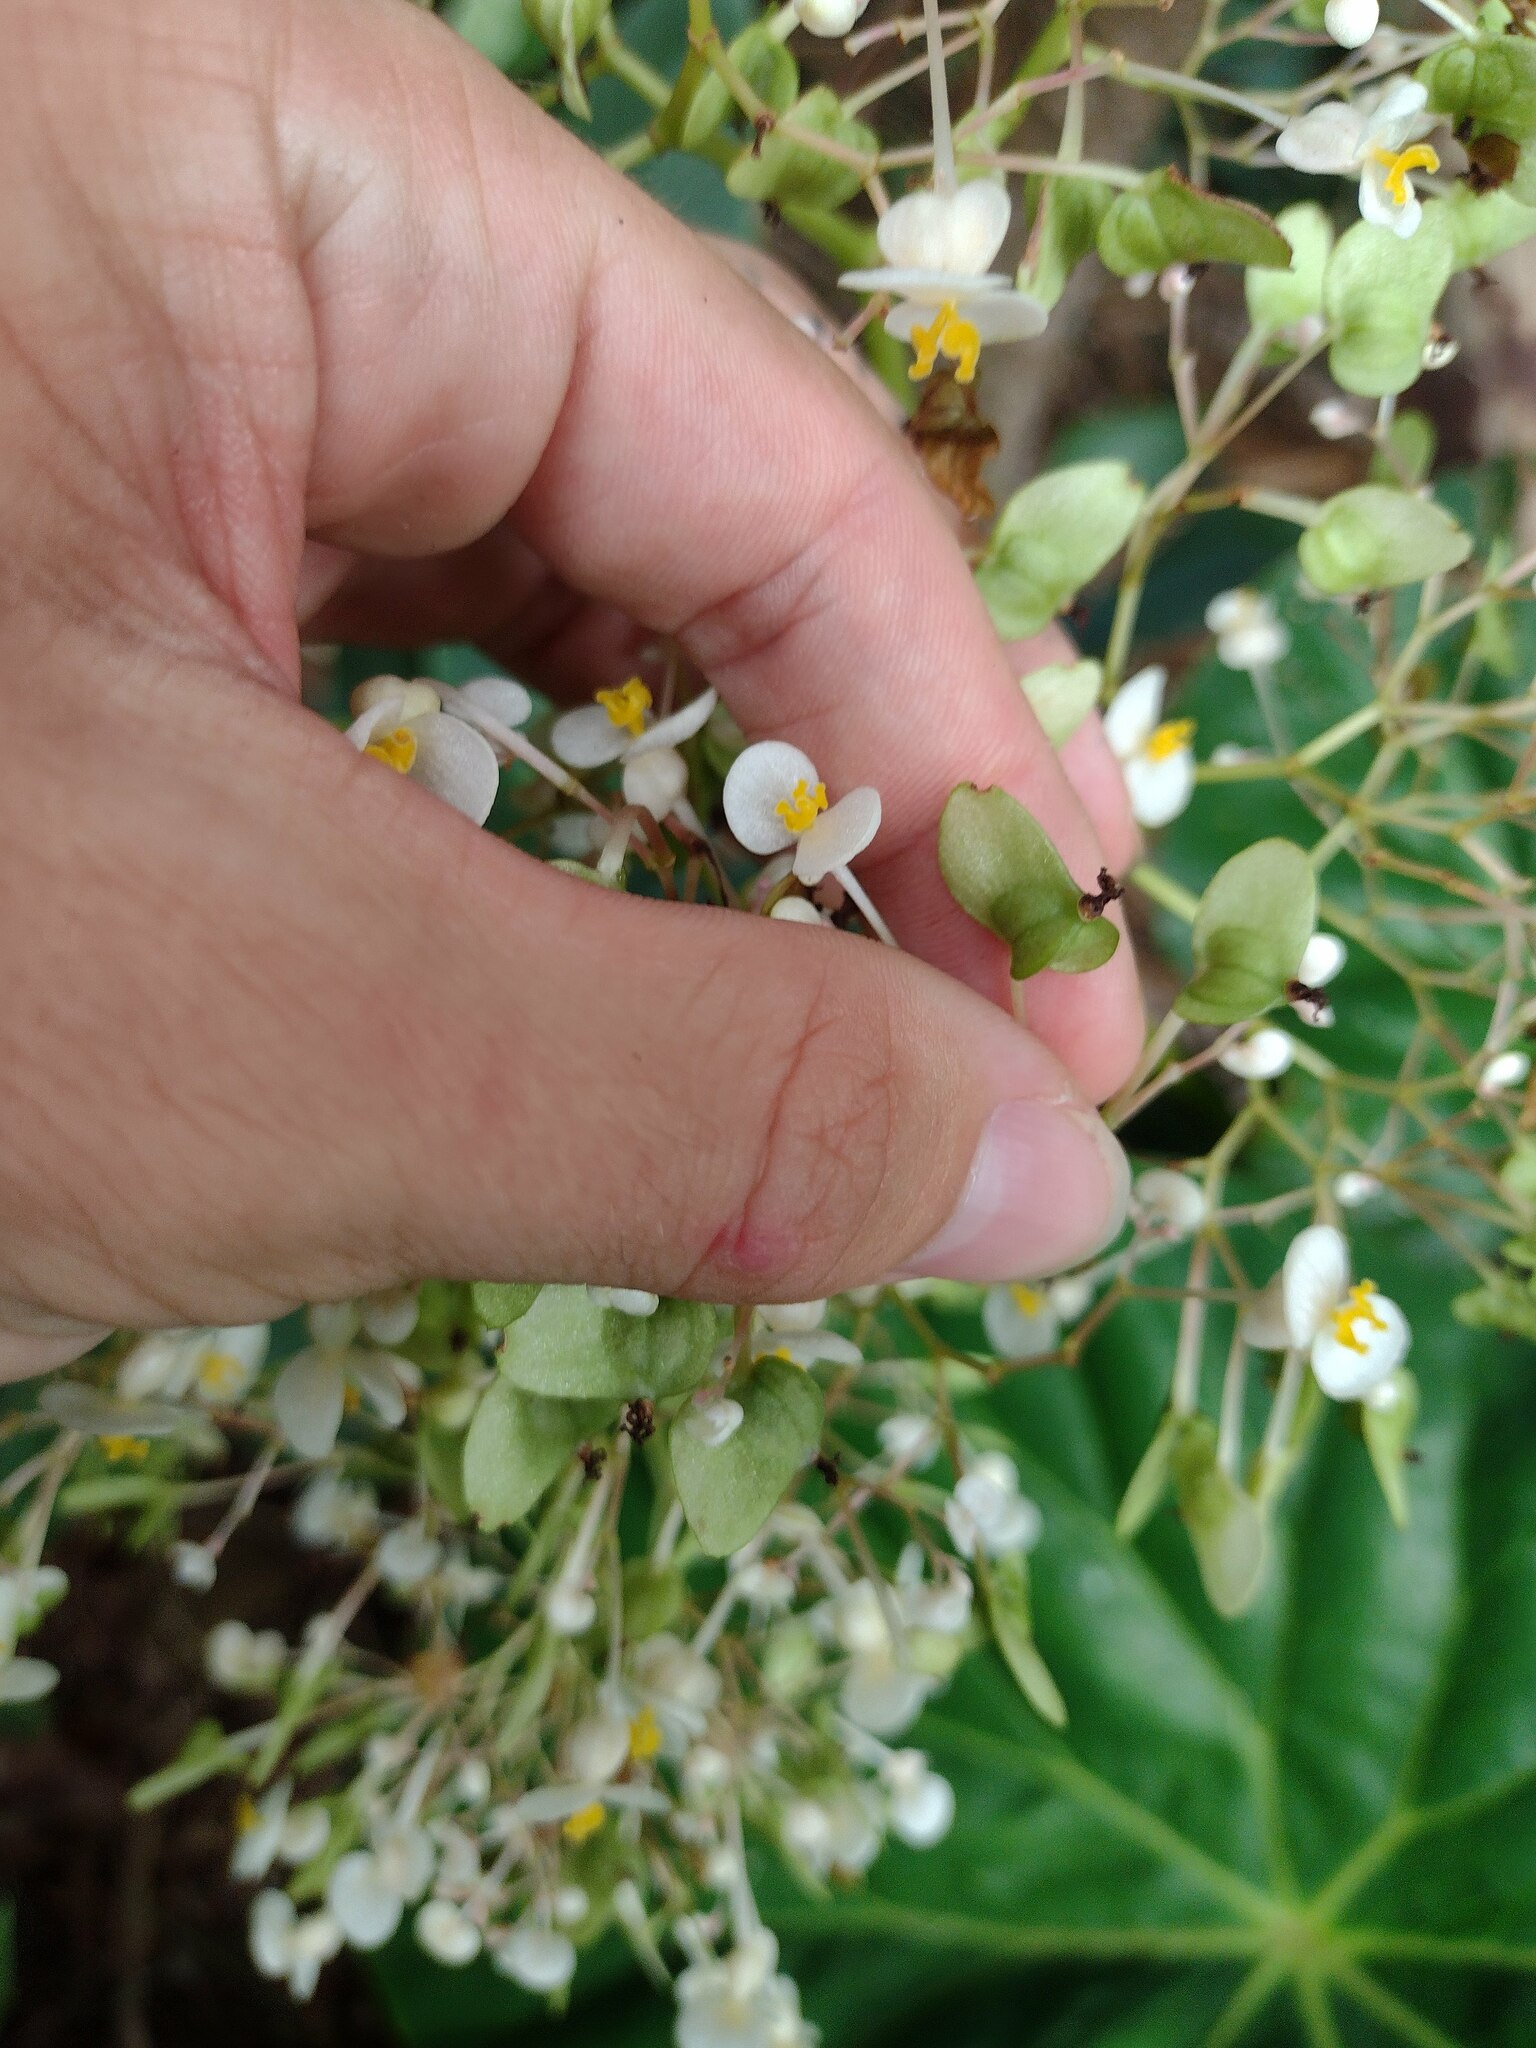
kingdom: Plantae
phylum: Tracheophyta
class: Magnoliopsida
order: Cucurbitales
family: Begoniaceae
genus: Begonia
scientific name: Begonia nelumbiifolia
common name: Lilypad begonia
